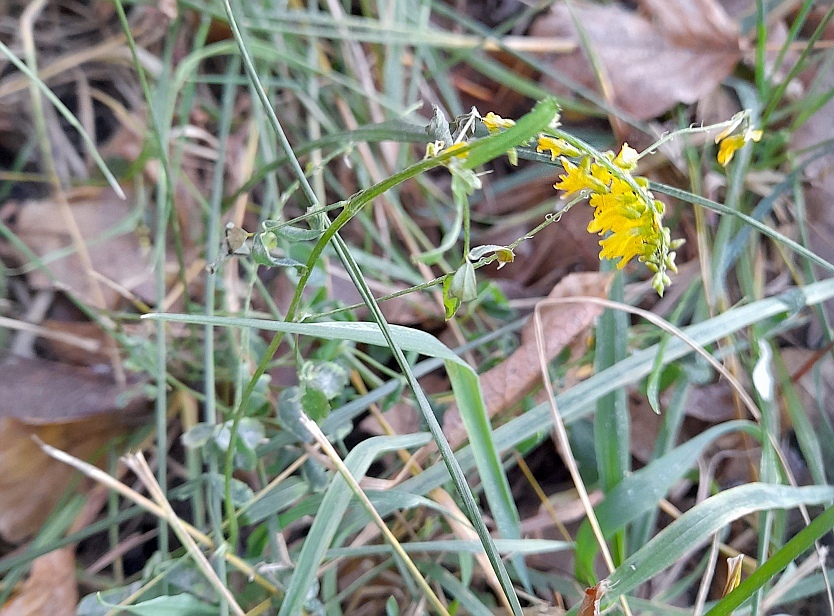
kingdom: Plantae
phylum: Tracheophyta
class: Magnoliopsida
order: Fabales
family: Fabaceae
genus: Melilotus
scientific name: Melilotus officinalis
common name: Sweetclover
